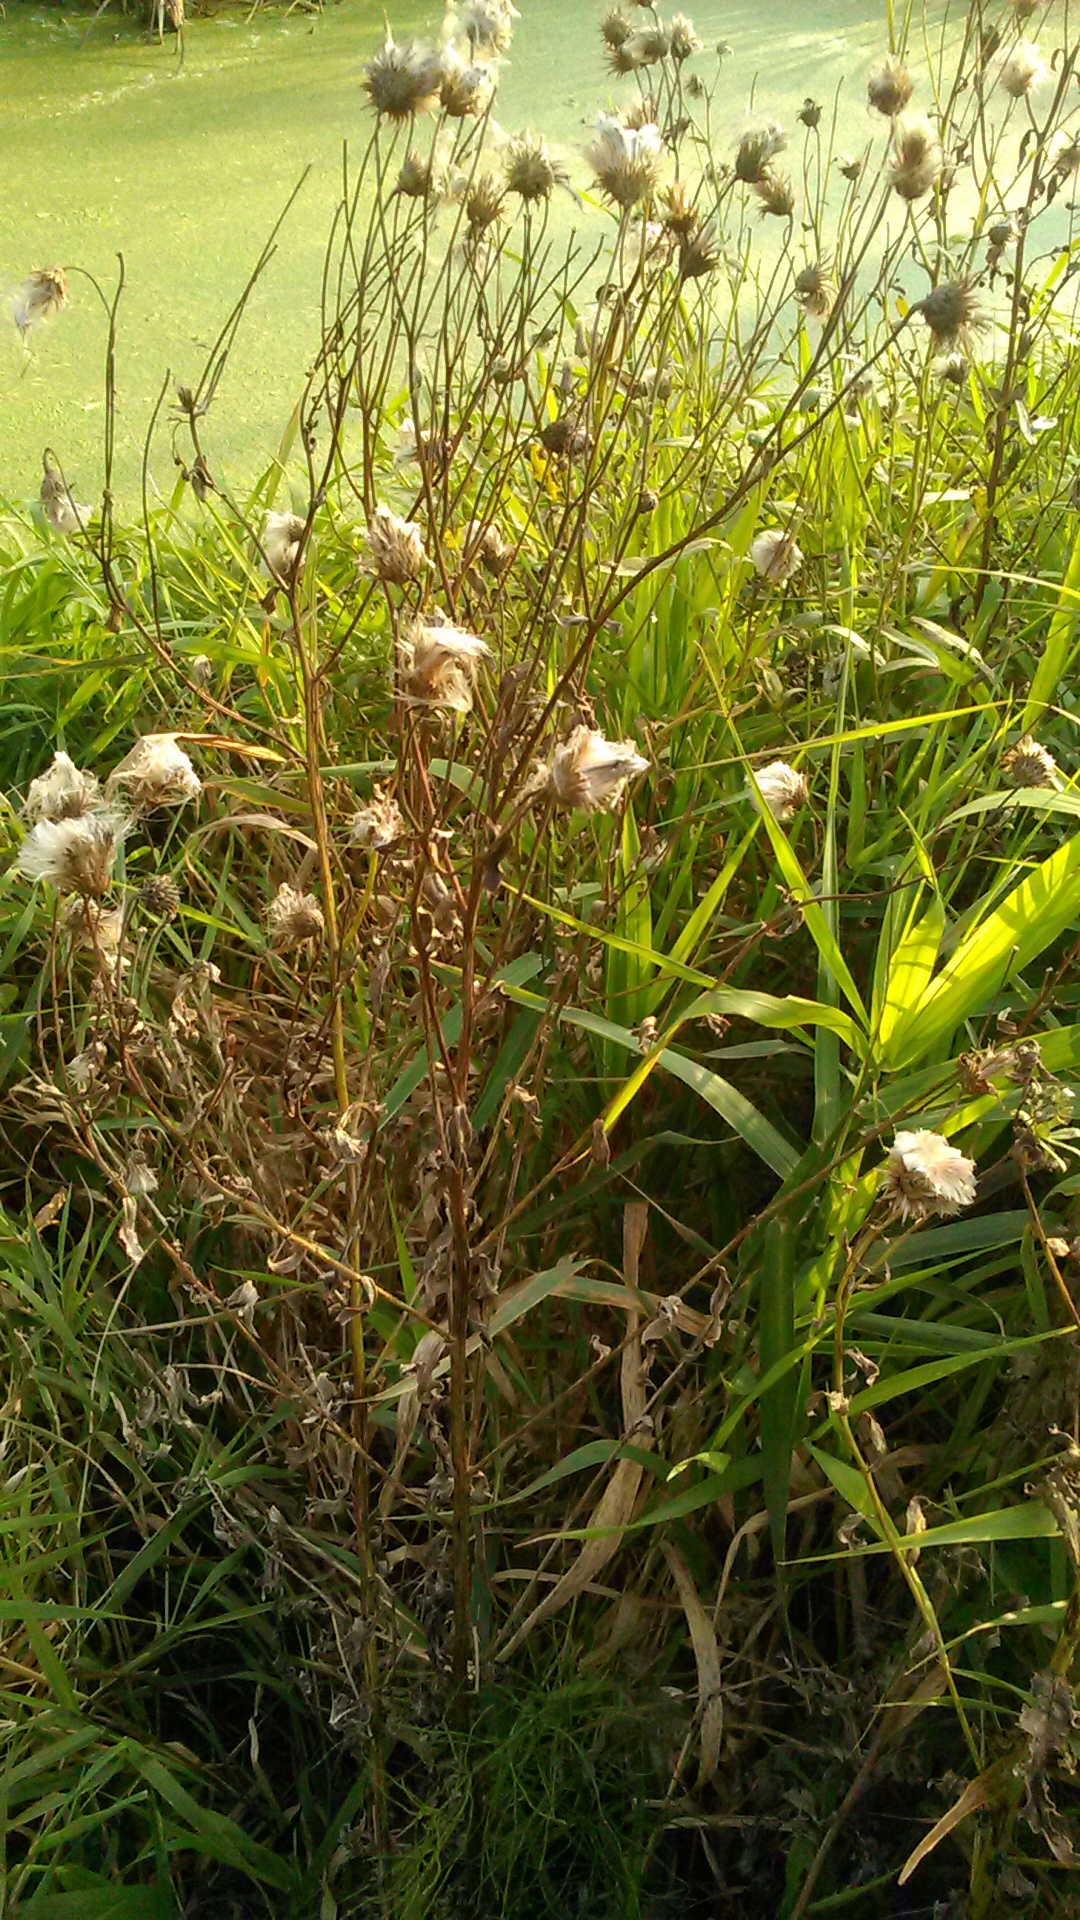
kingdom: Plantae
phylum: Tracheophyta
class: Magnoliopsida
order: Asterales
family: Asteraceae
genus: Cirsium
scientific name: Cirsium arvense
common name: Creeping thistle
